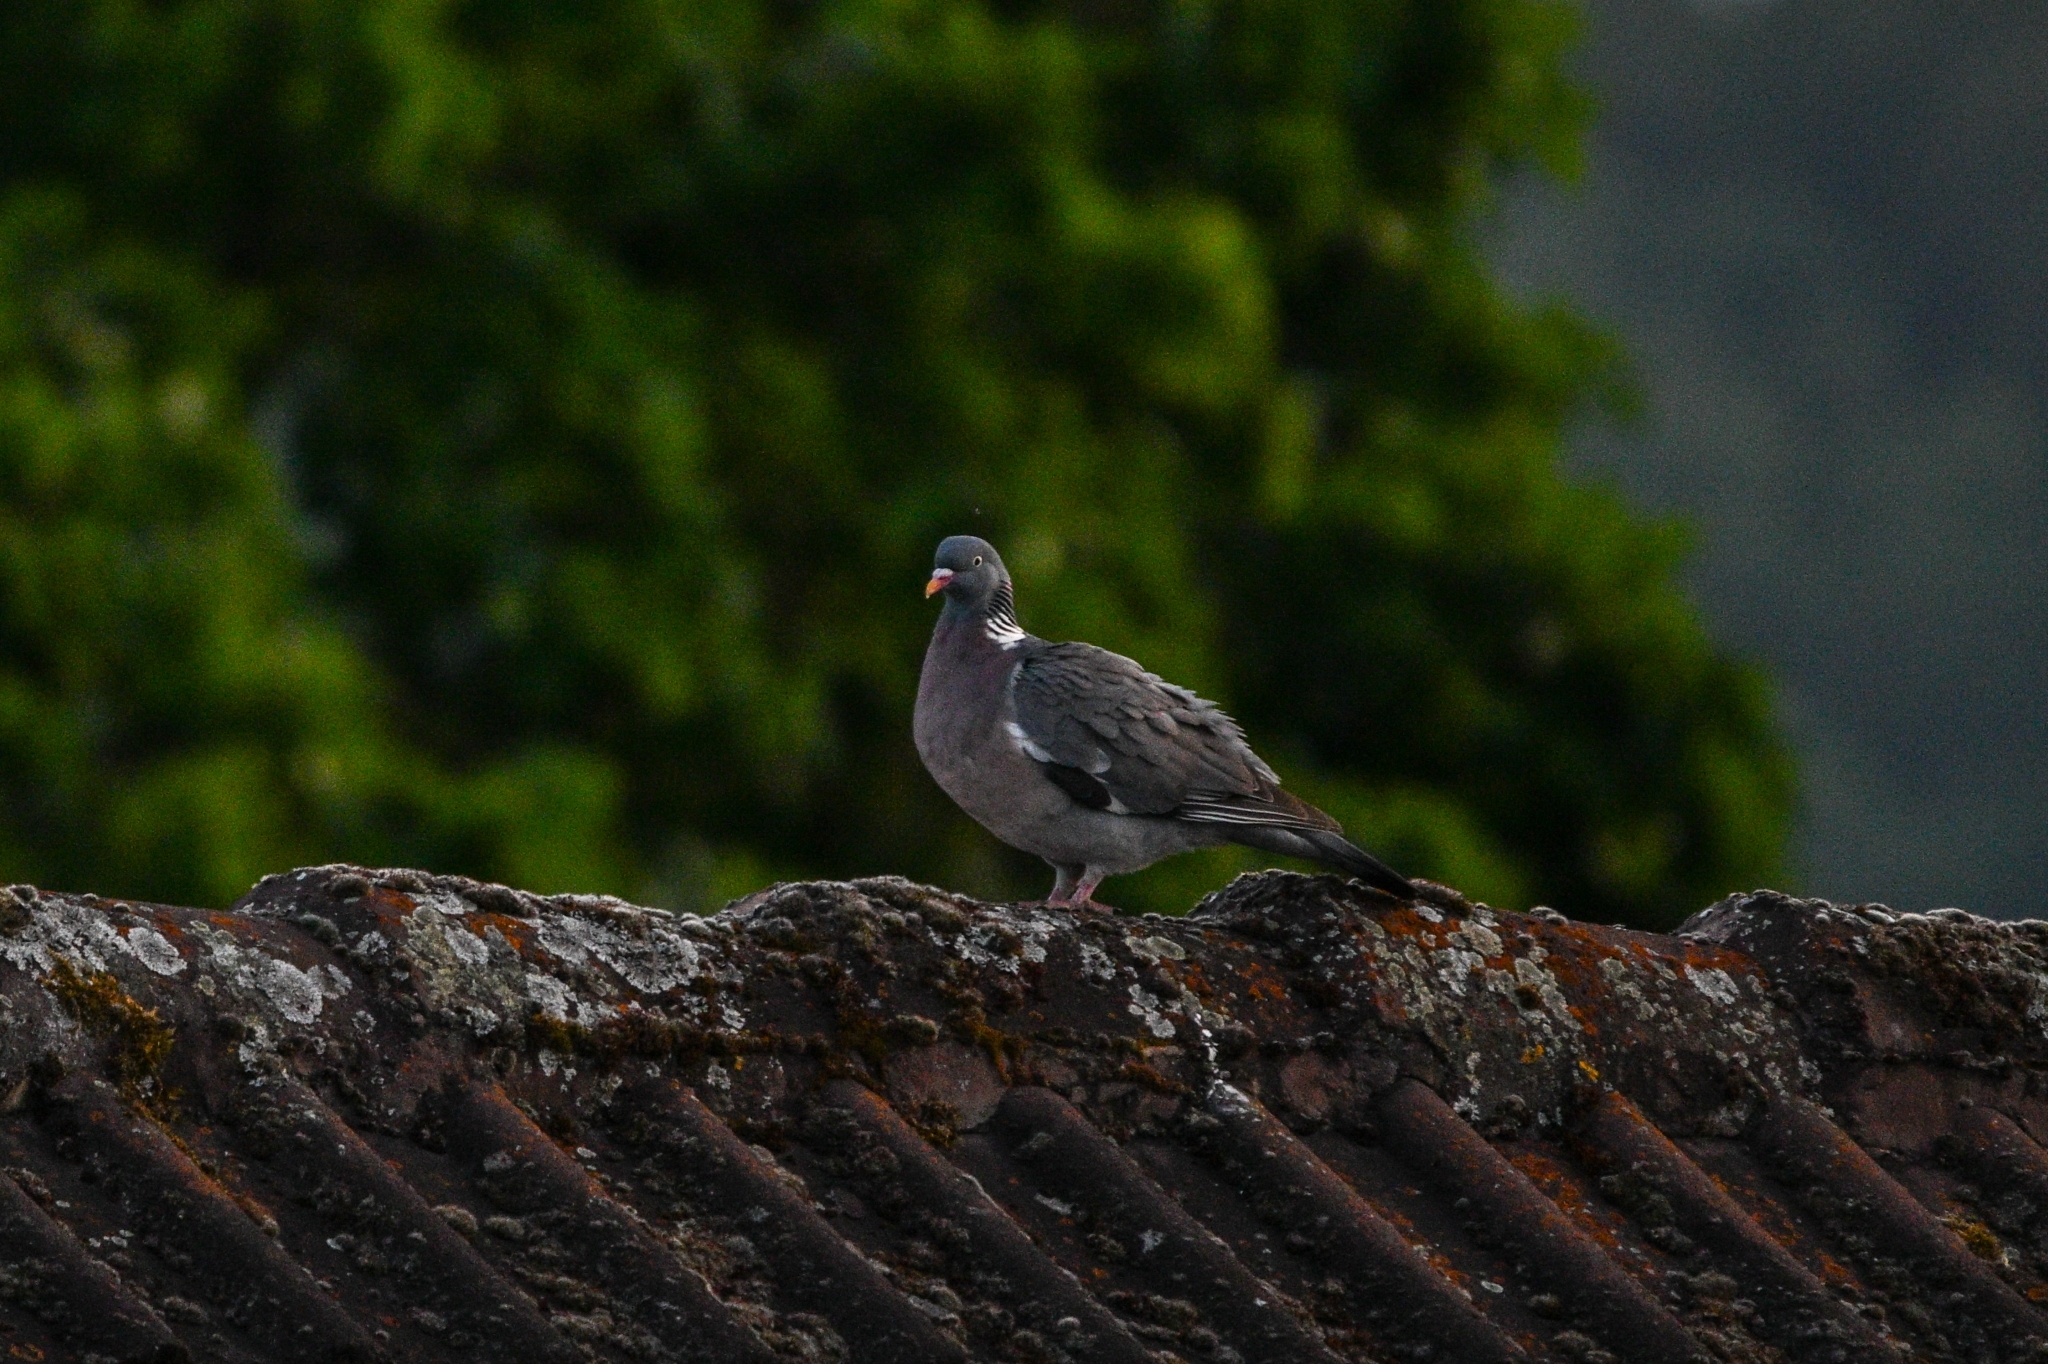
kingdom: Animalia
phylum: Chordata
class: Aves
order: Columbiformes
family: Columbidae
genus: Columba
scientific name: Columba palumbus
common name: Common wood pigeon
